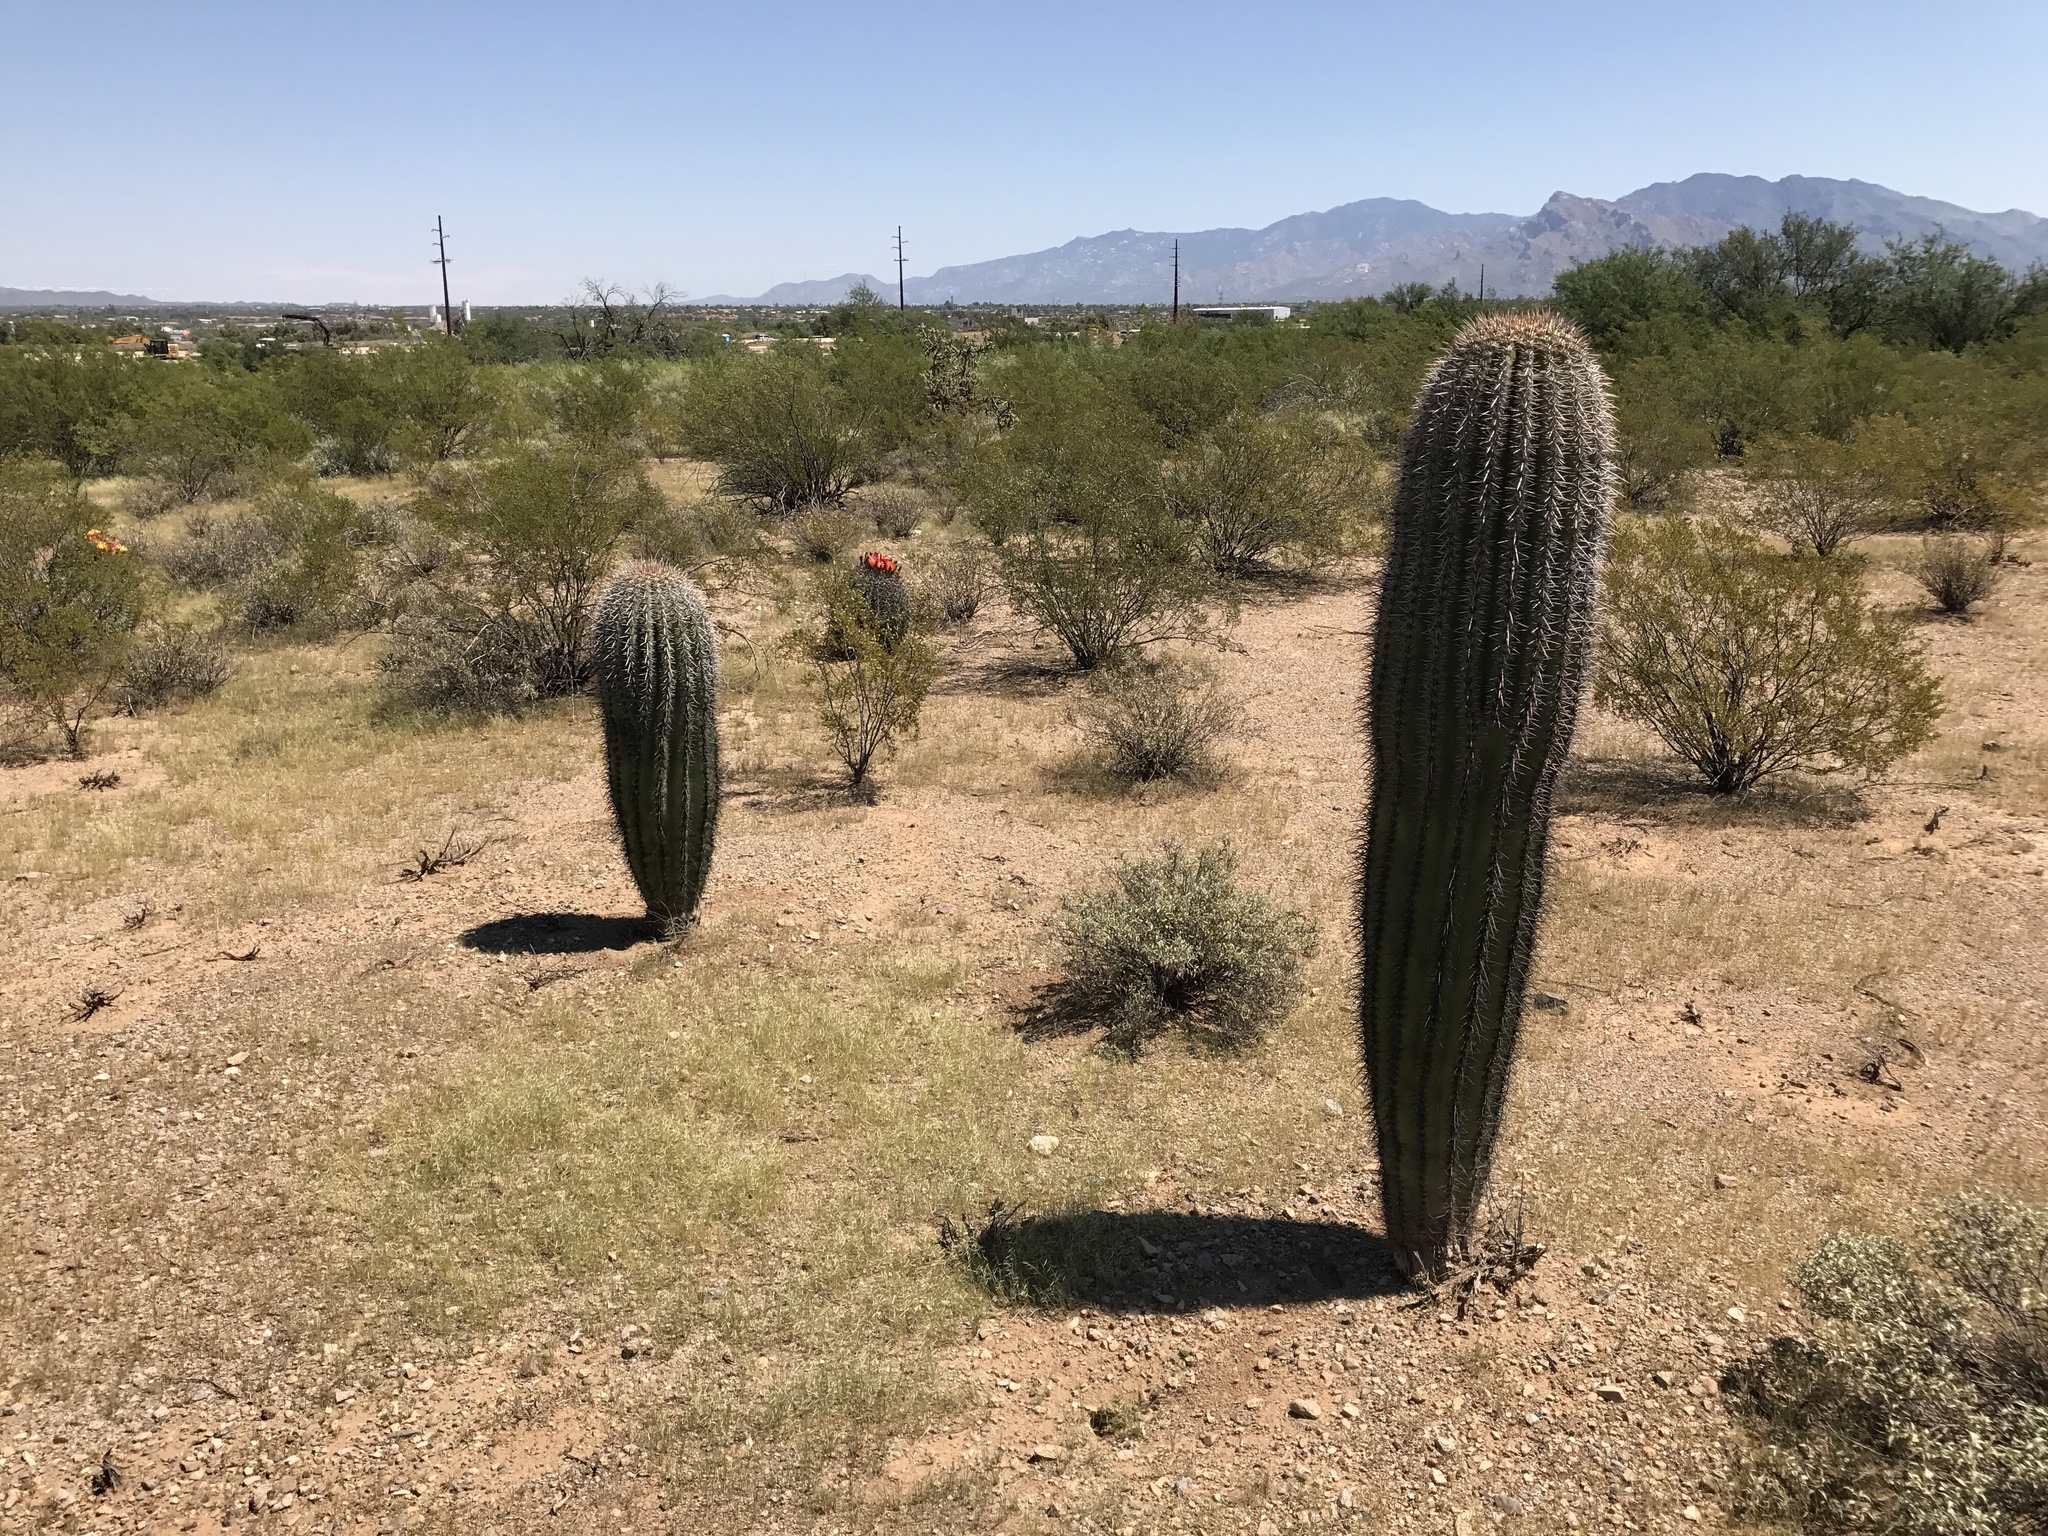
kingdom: Plantae
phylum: Tracheophyta
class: Magnoliopsida
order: Caryophyllales
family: Cactaceae
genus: Carnegiea
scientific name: Carnegiea gigantea
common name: Saguaro
